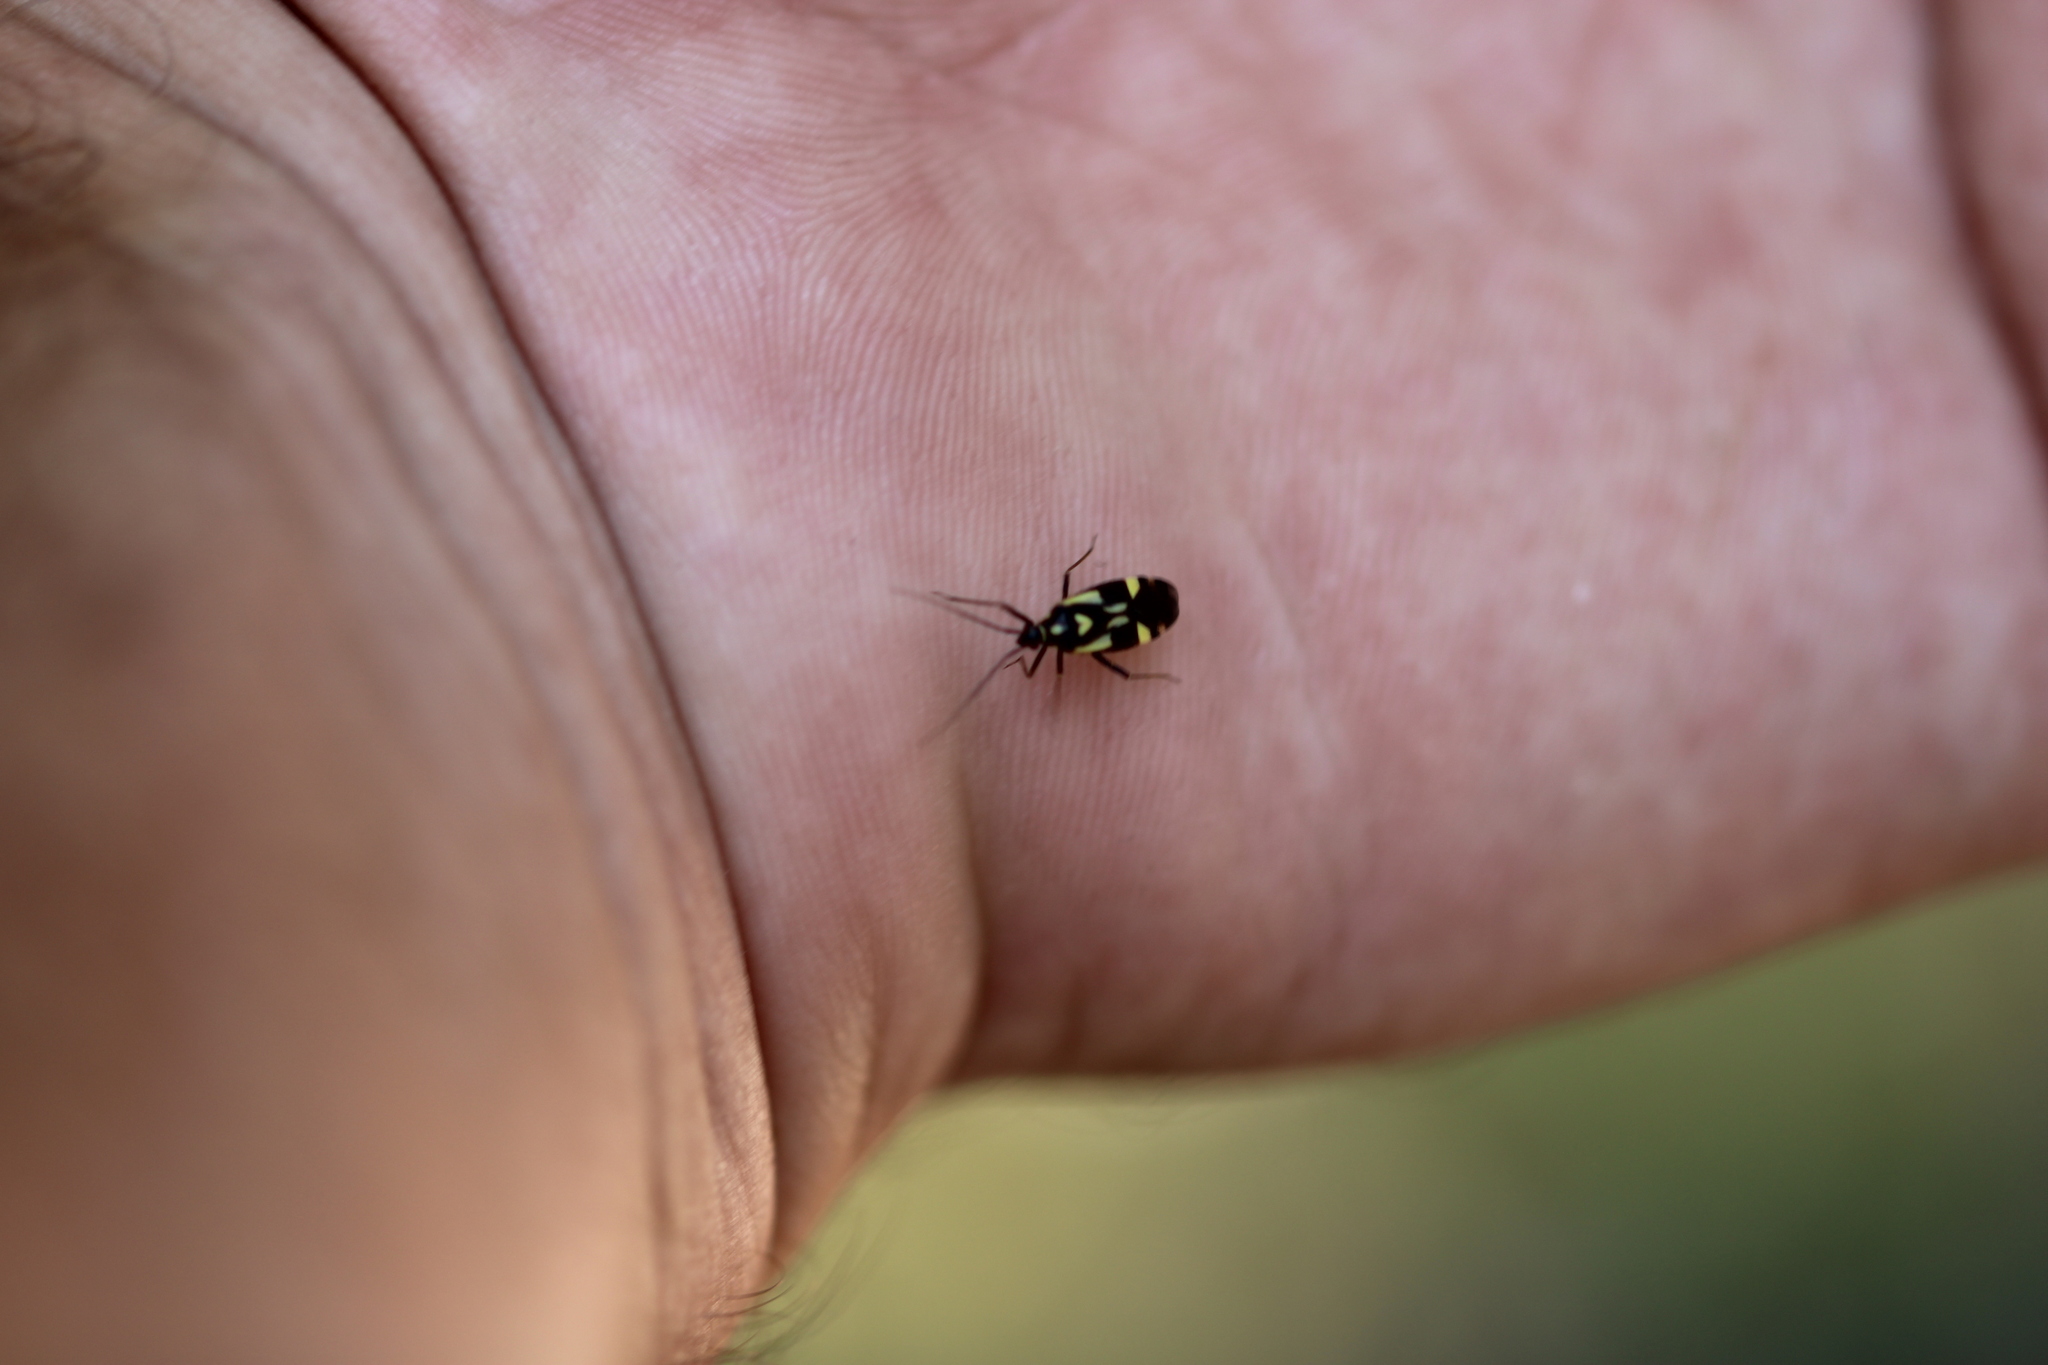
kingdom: Animalia
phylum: Arthropoda
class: Insecta
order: Hemiptera
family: Miridae
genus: Grypocoris
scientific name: Grypocoris sexguttatus
